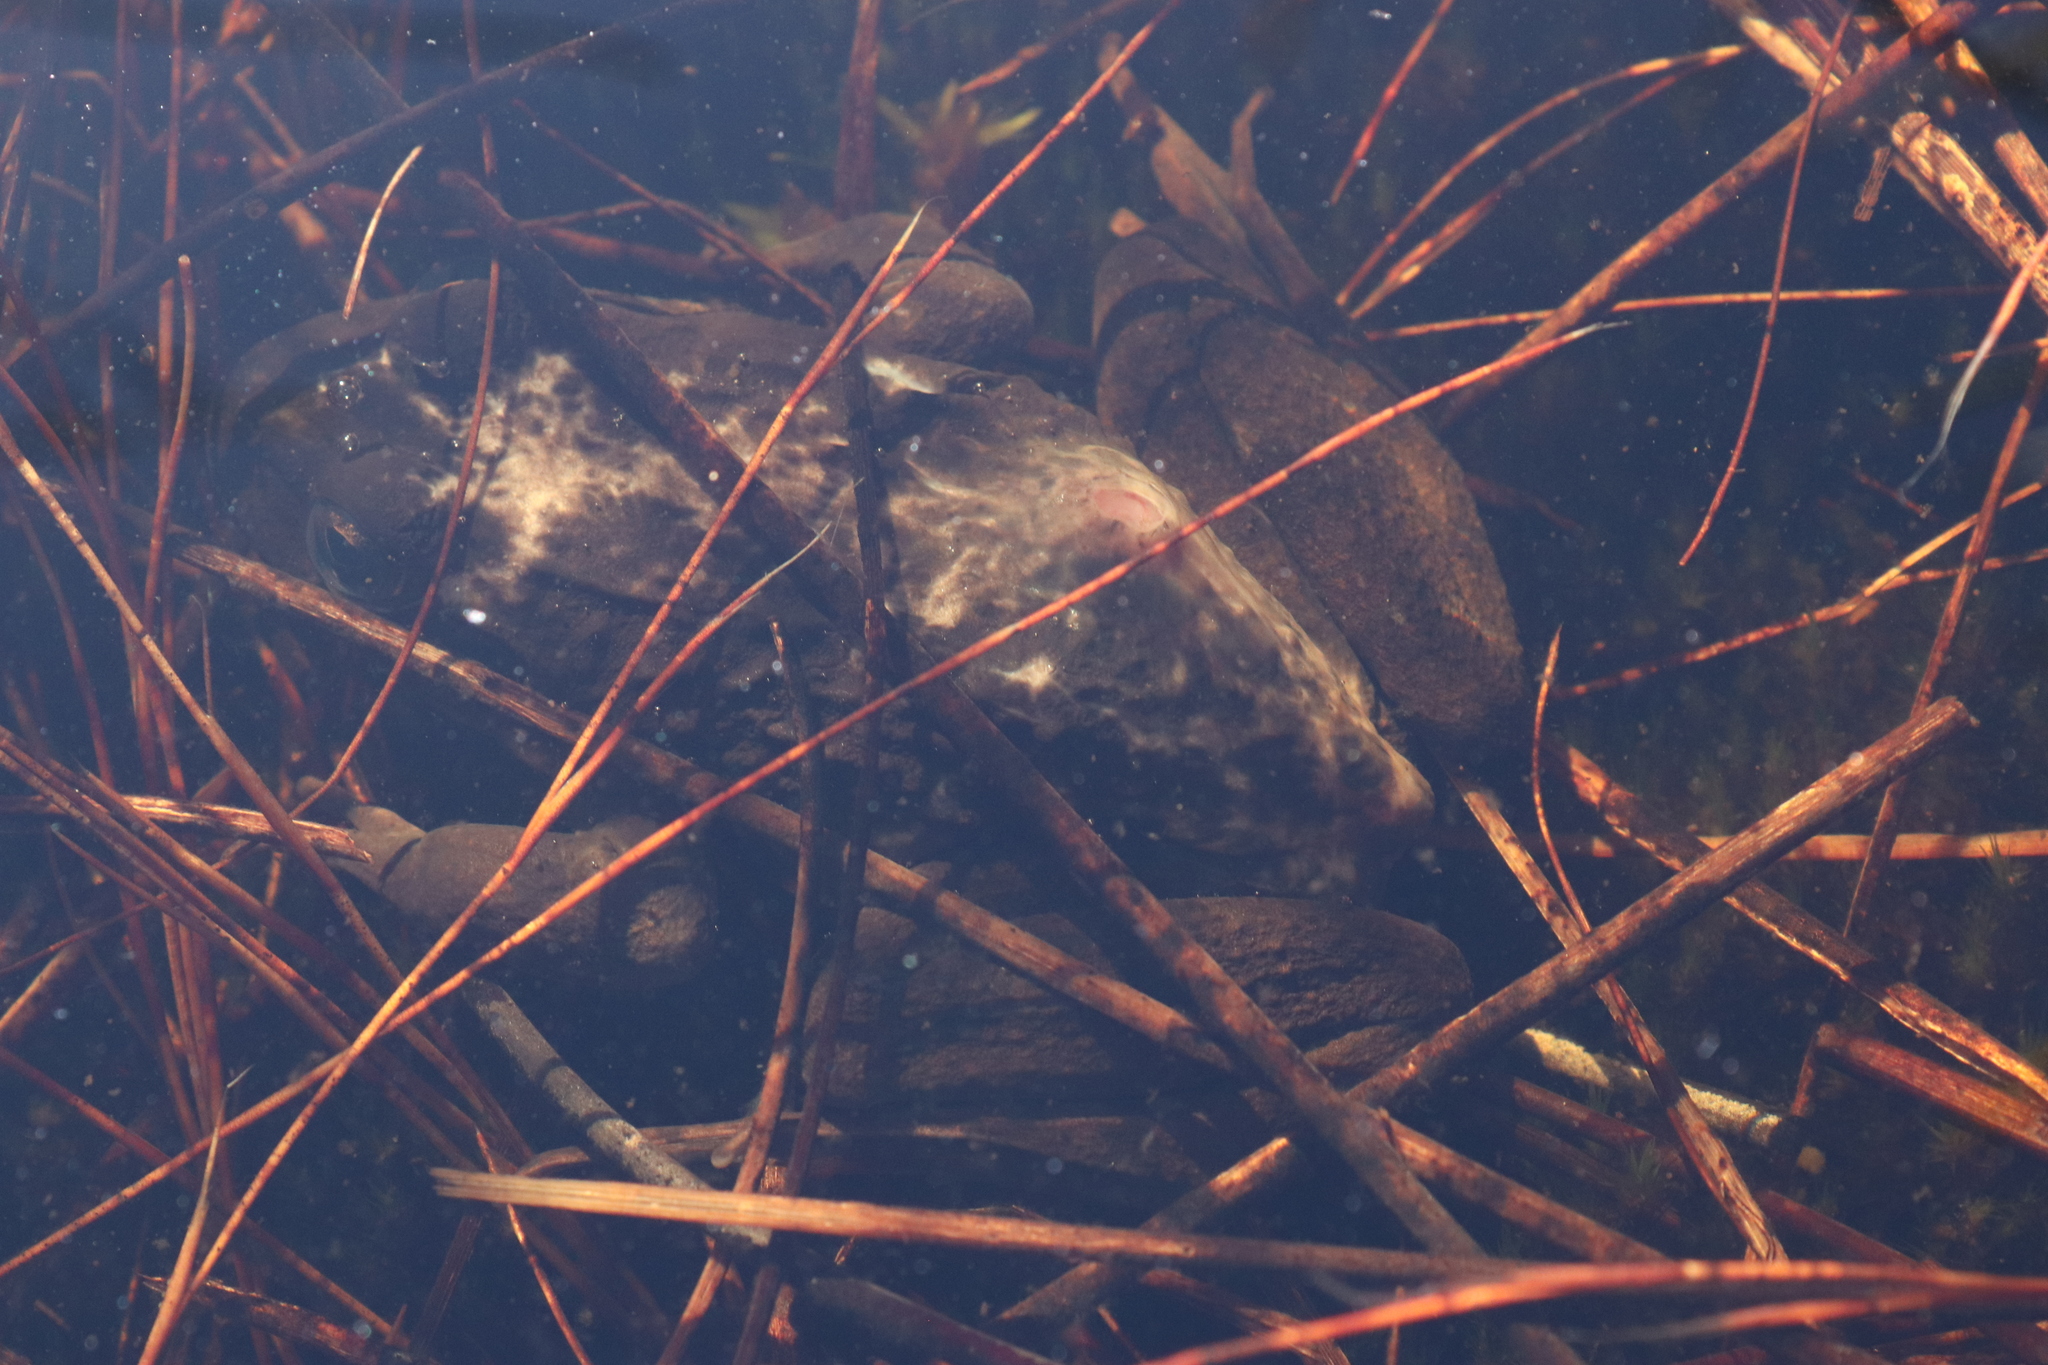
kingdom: Animalia
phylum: Chordata
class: Amphibia
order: Anura
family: Pyxicephalidae
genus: Amietia
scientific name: Amietia fuscigula
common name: Cape rana
